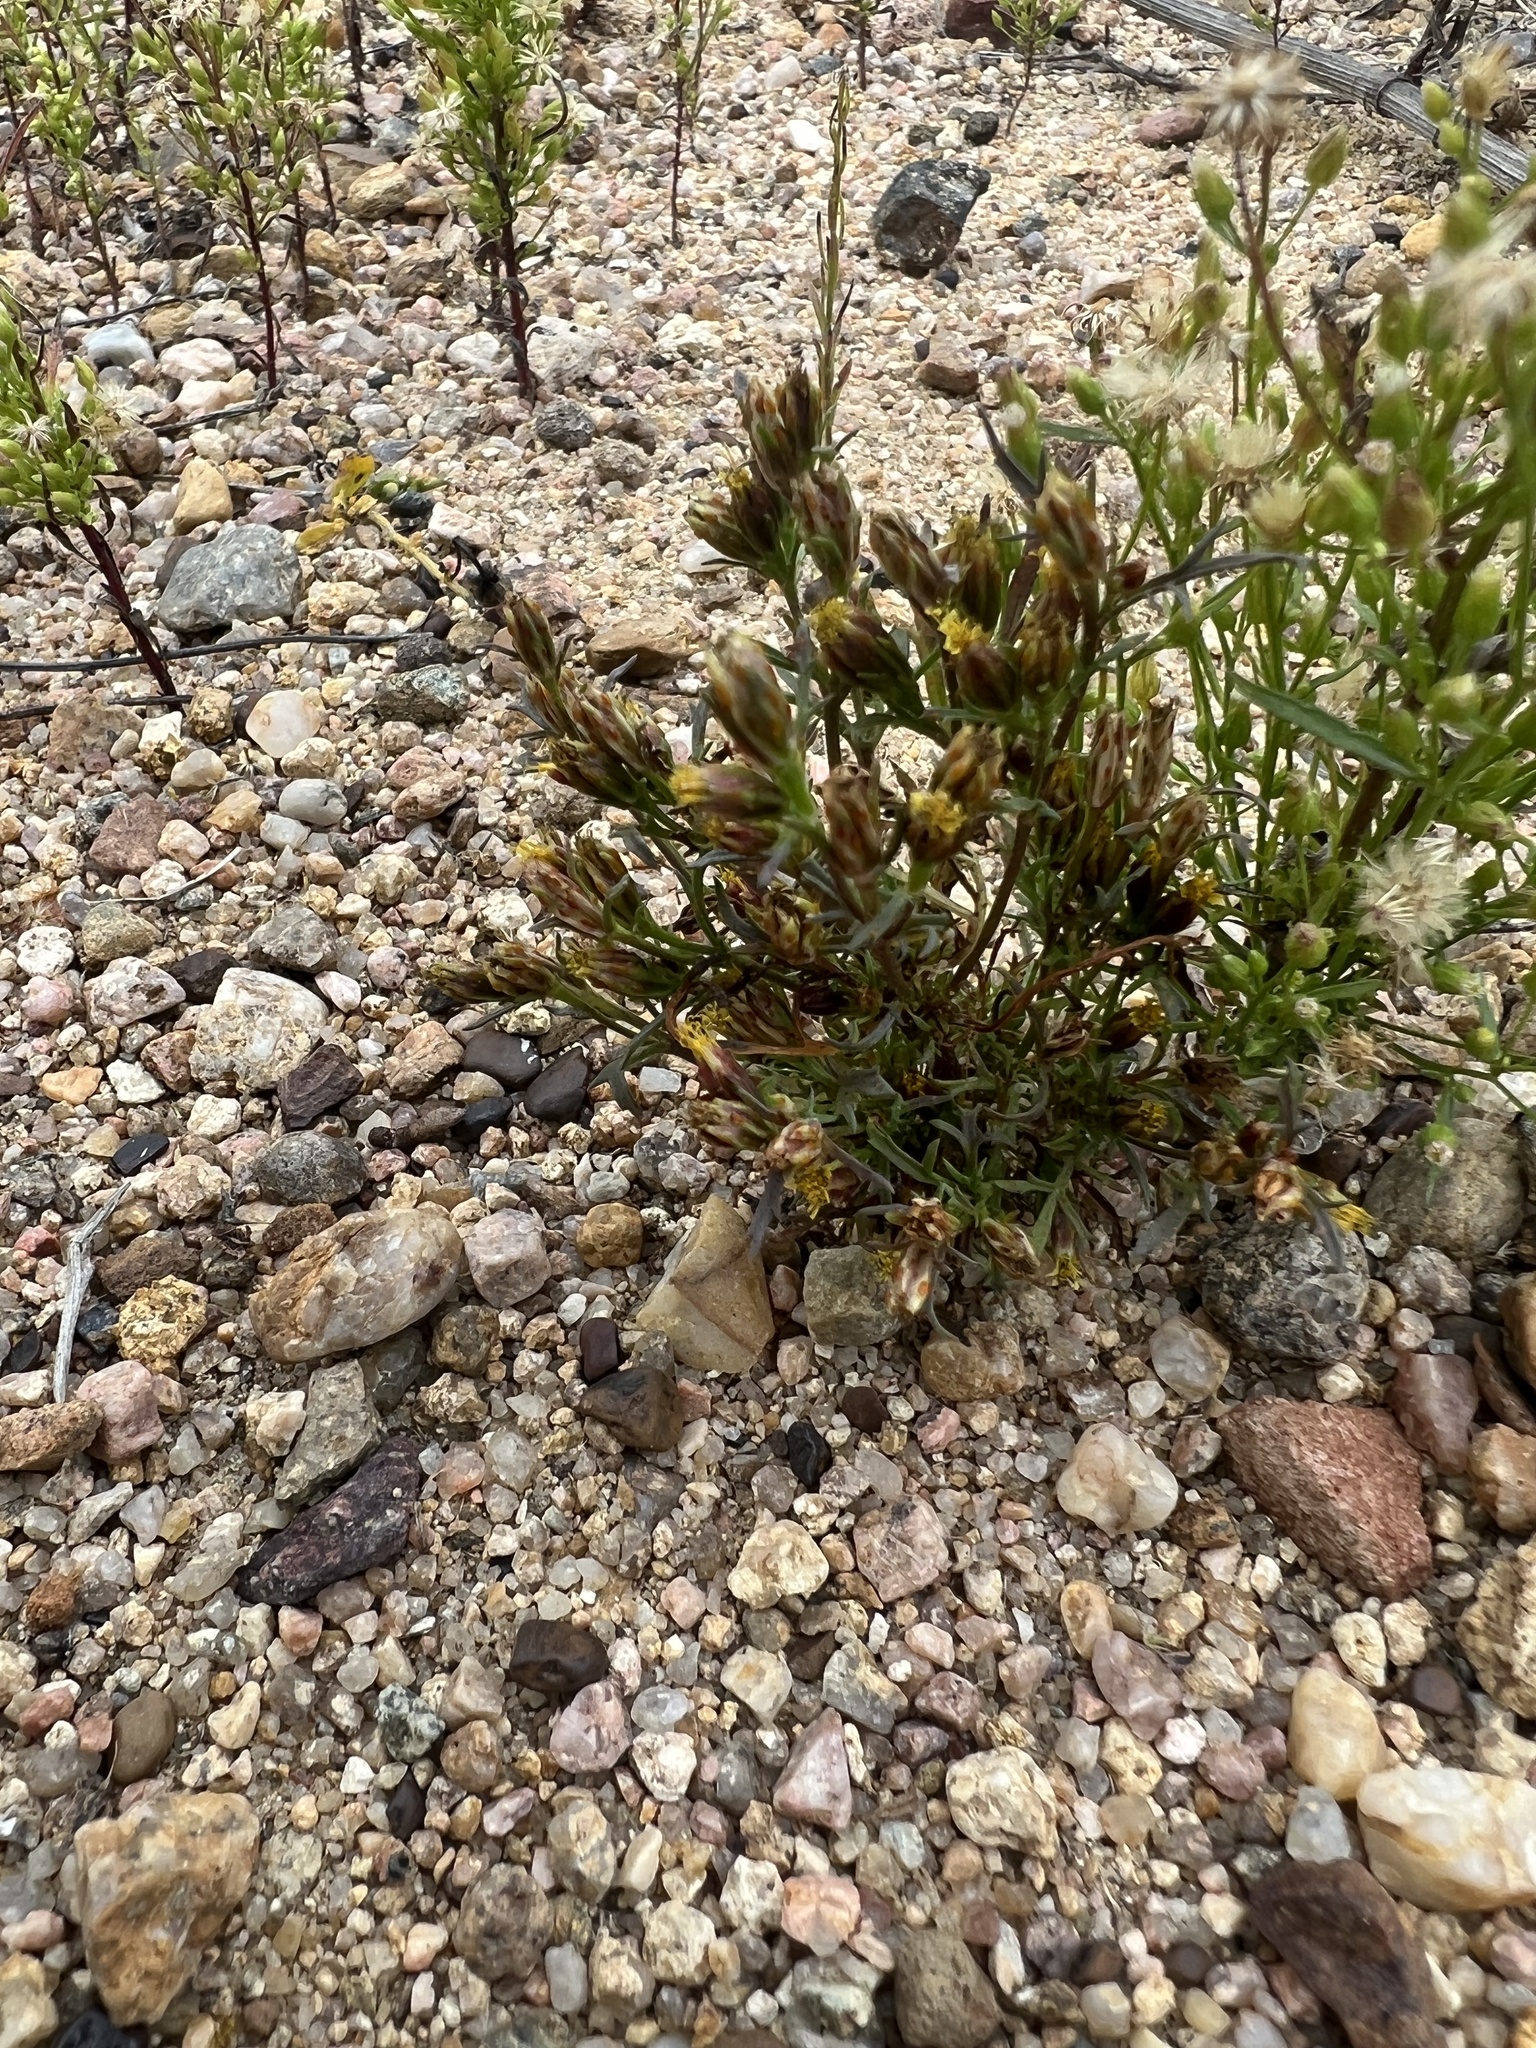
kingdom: Plantae
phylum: Tracheophyta
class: Magnoliopsida
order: Asterales
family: Asteraceae
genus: Dyssodia
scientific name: Dyssodia papposa
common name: Dogweed
